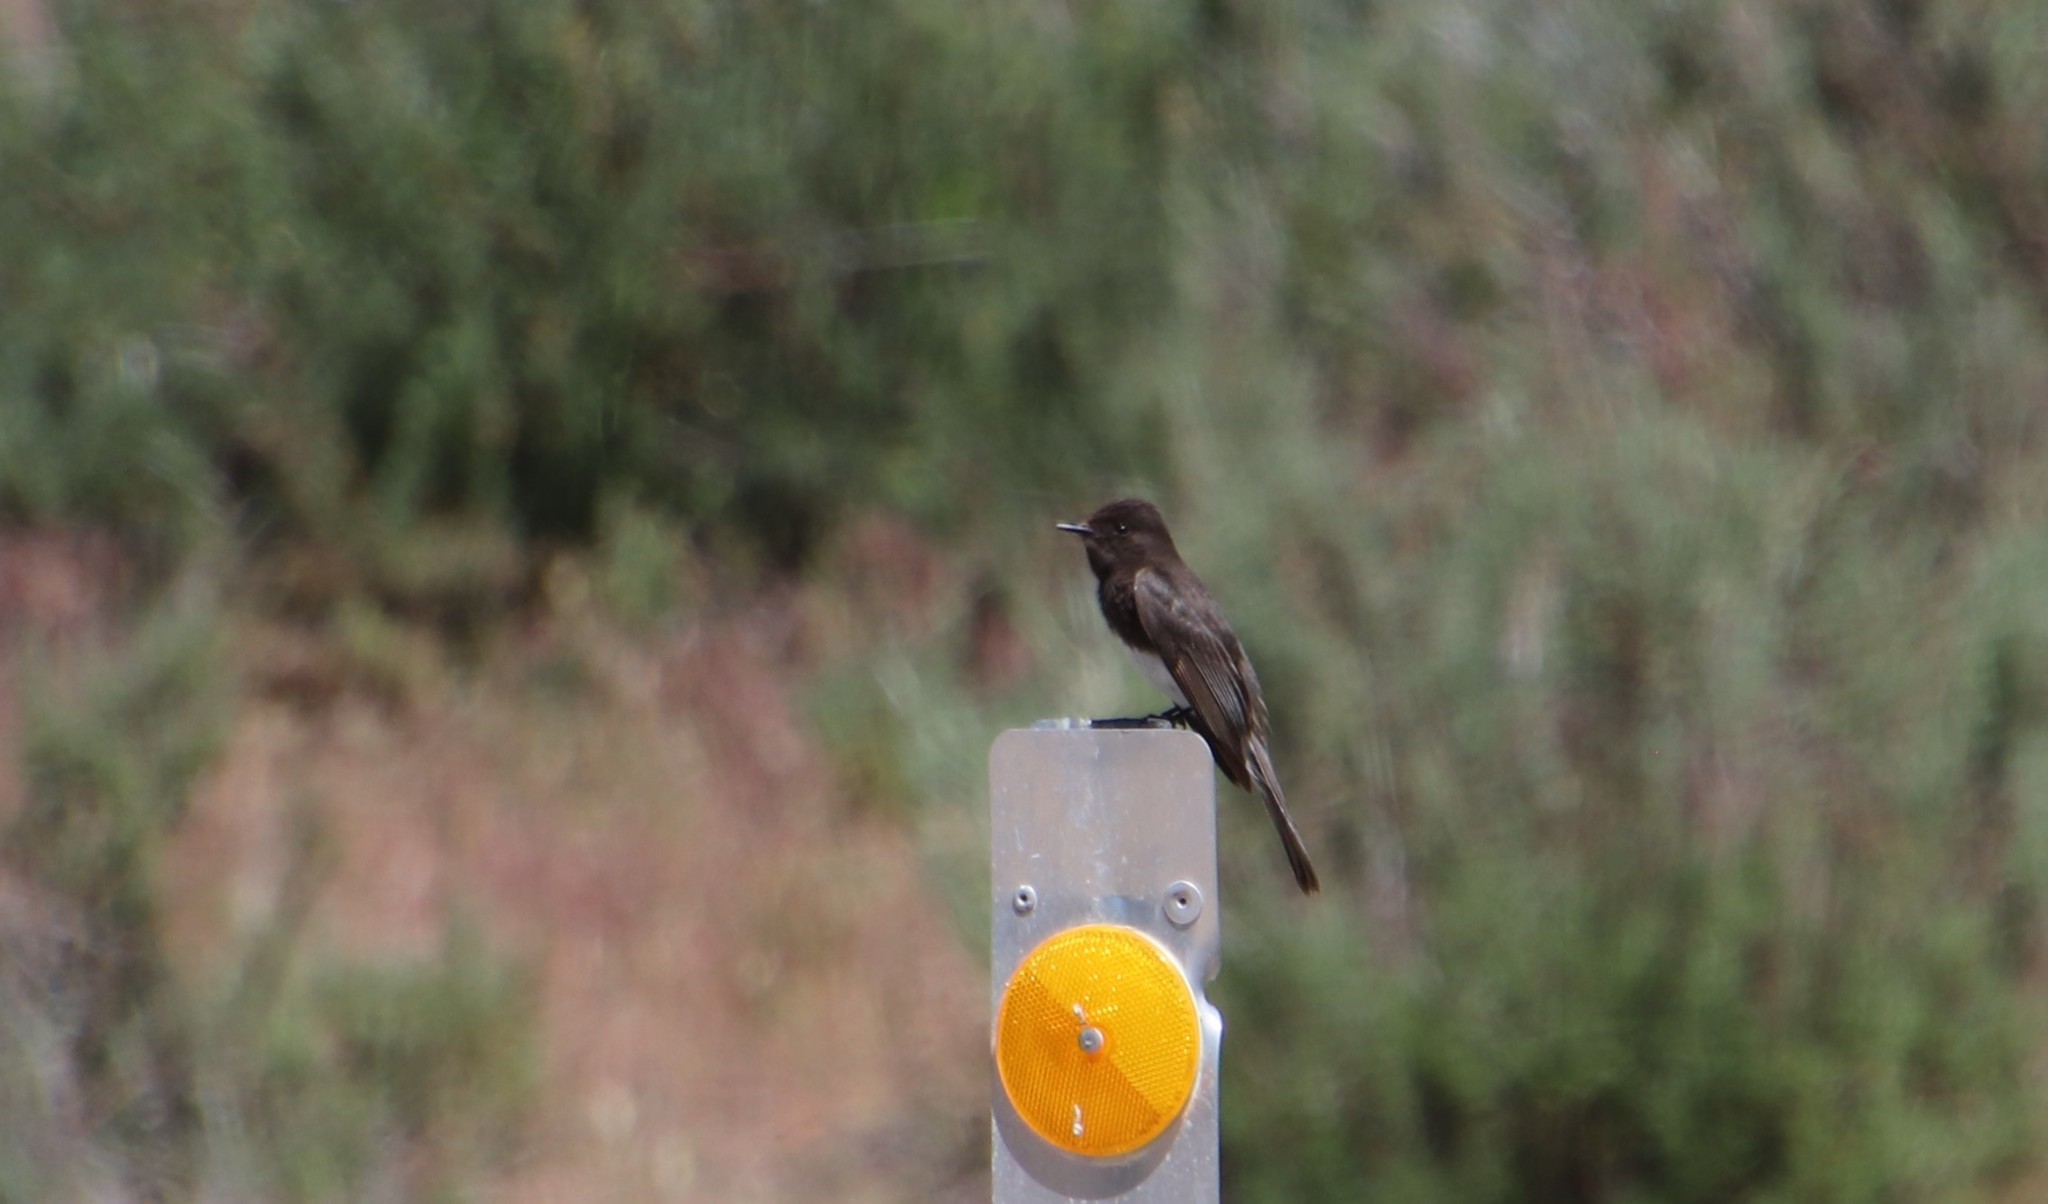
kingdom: Animalia
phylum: Chordata
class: Aves
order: Passeriformes
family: Tyrannidae
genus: Sayornis
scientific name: Sayornis nigricans
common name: Black phoebe
